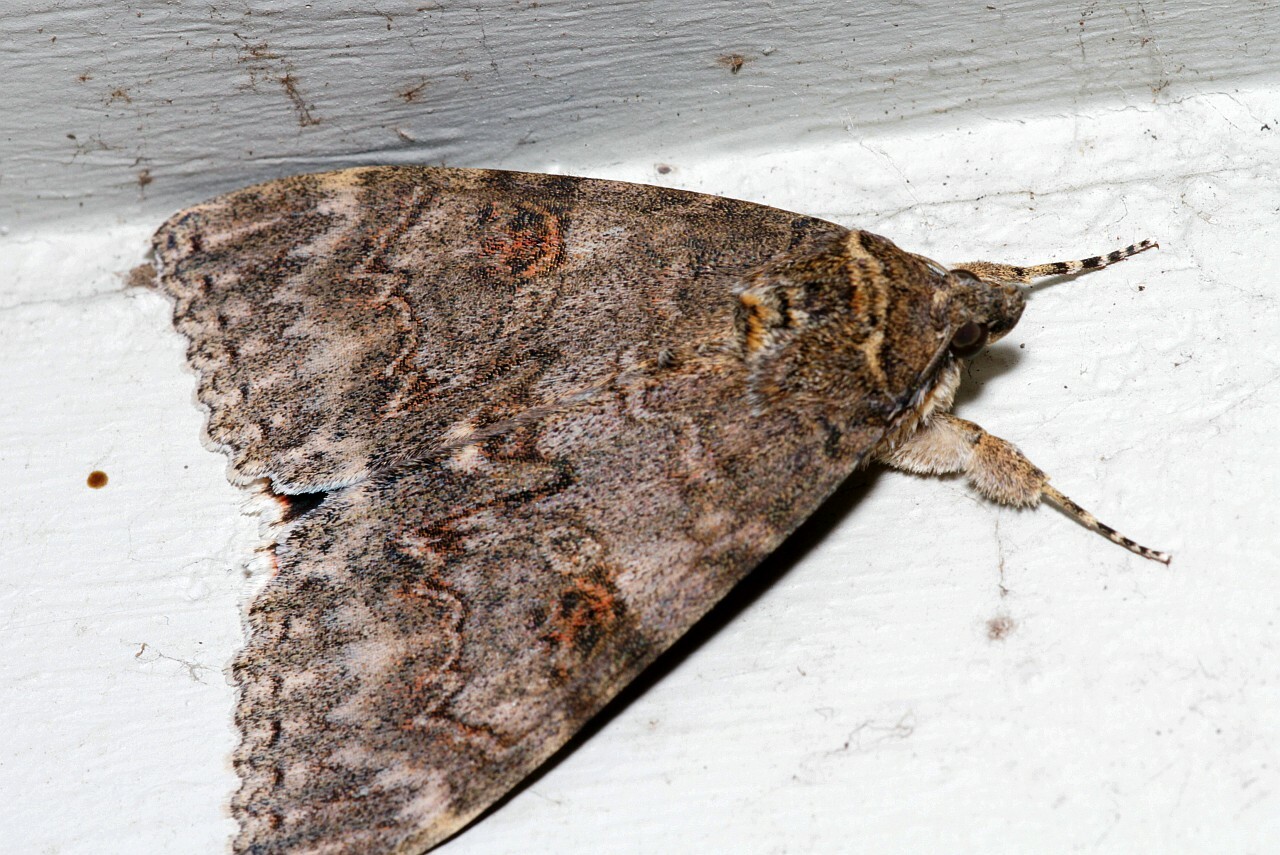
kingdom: Animalia
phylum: Arthropoda
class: Insecta
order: Lepidoptera
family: Erebidae
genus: Catocala
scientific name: Catocala nupta
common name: Red underwing
